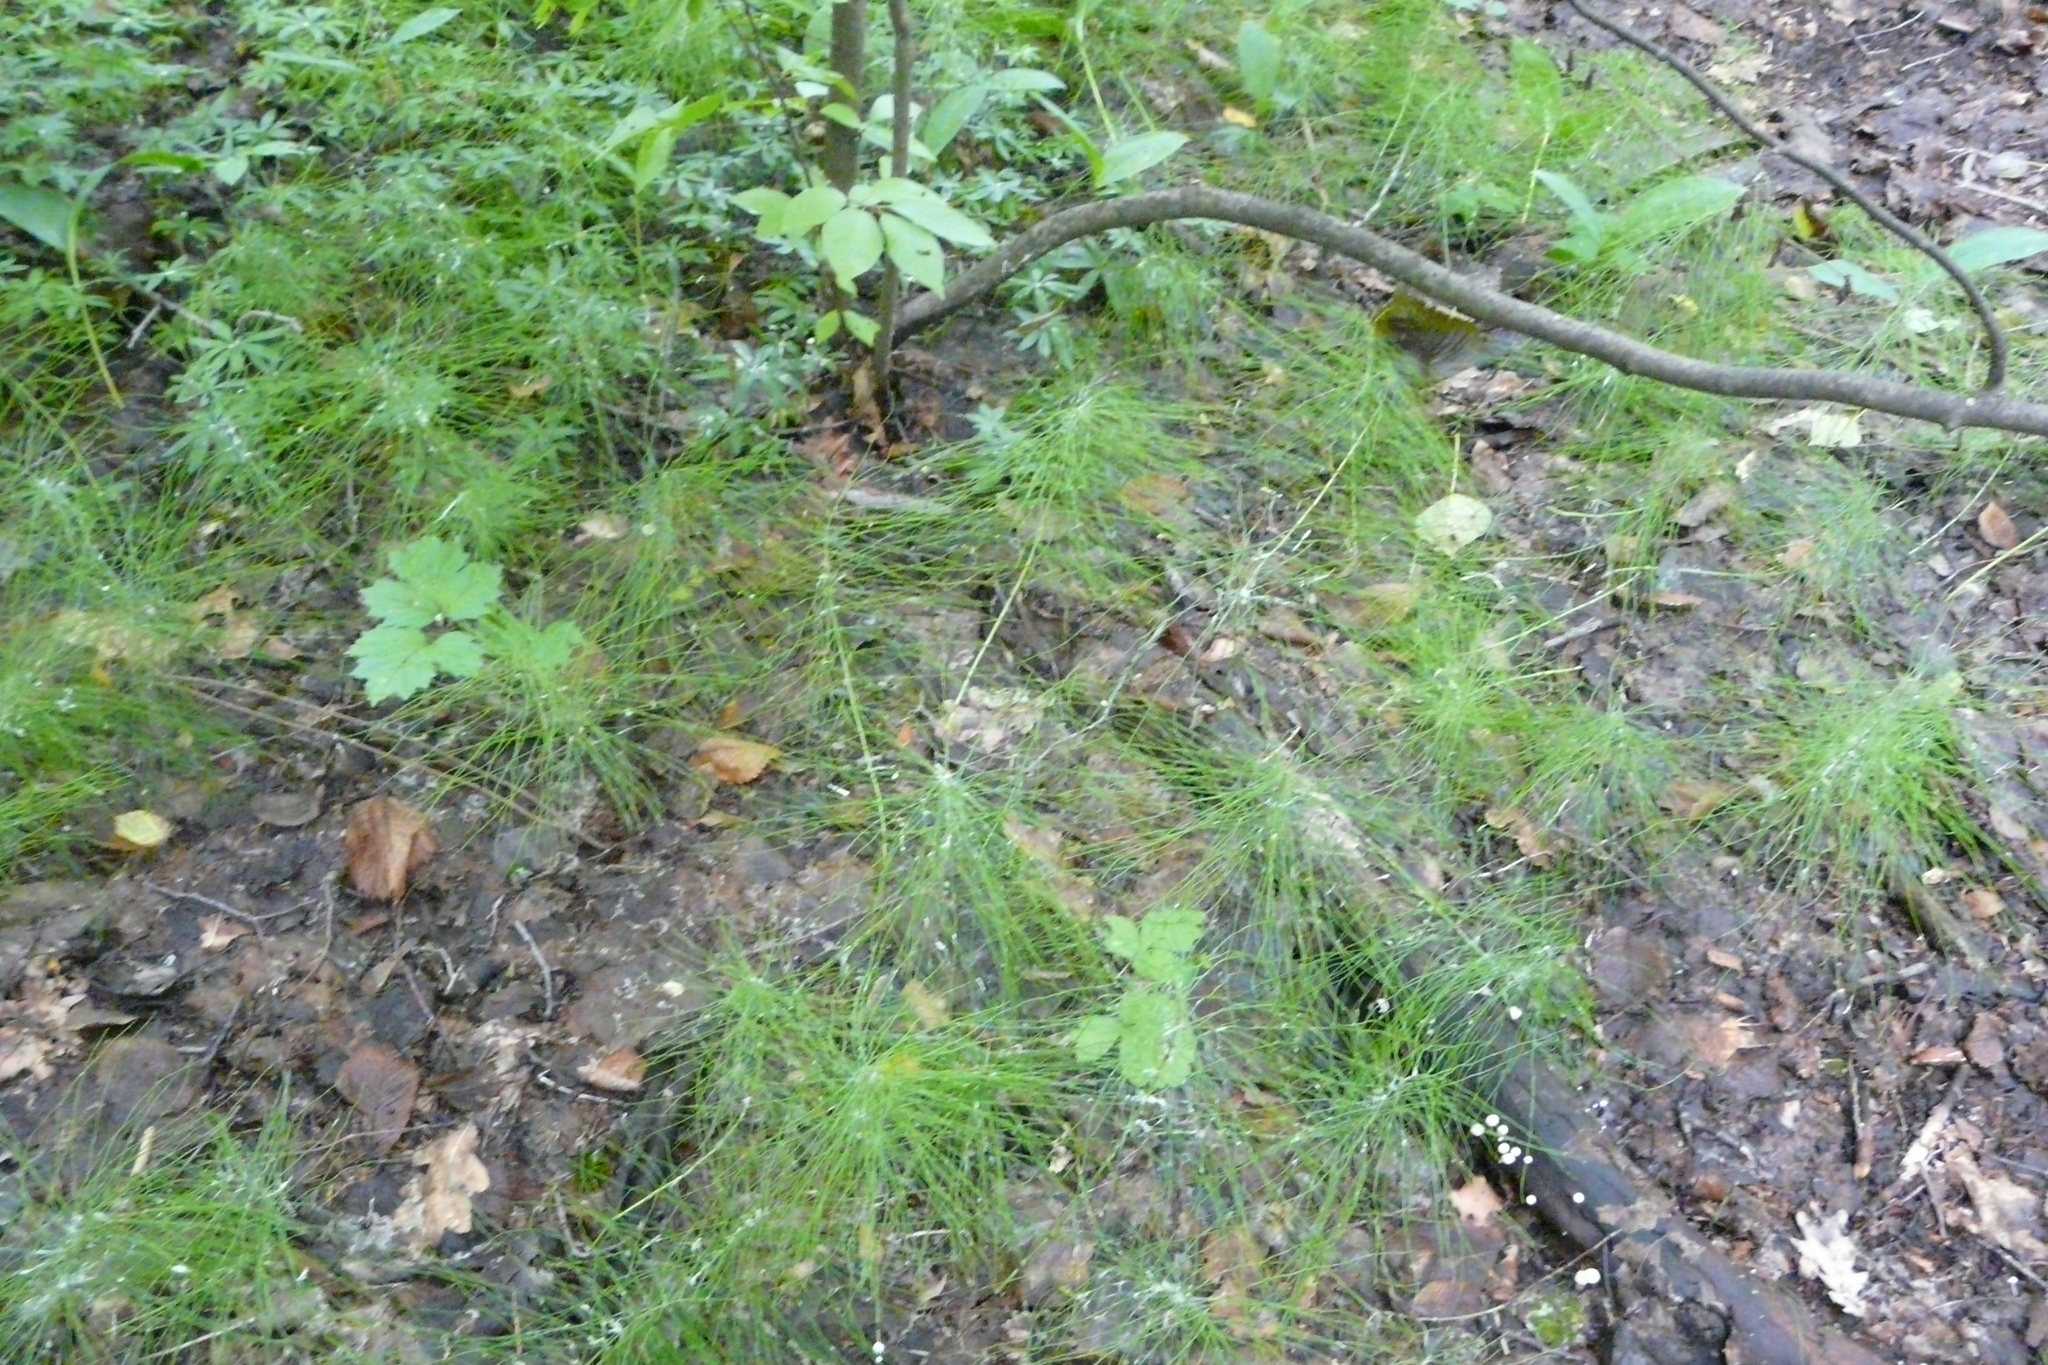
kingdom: Plantae
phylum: Tracheophyta
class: Polypodiopsida
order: Equisetales
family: Equisetaceae
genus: Equisetum
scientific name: Equisetum pratense
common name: Meadow horsetail
